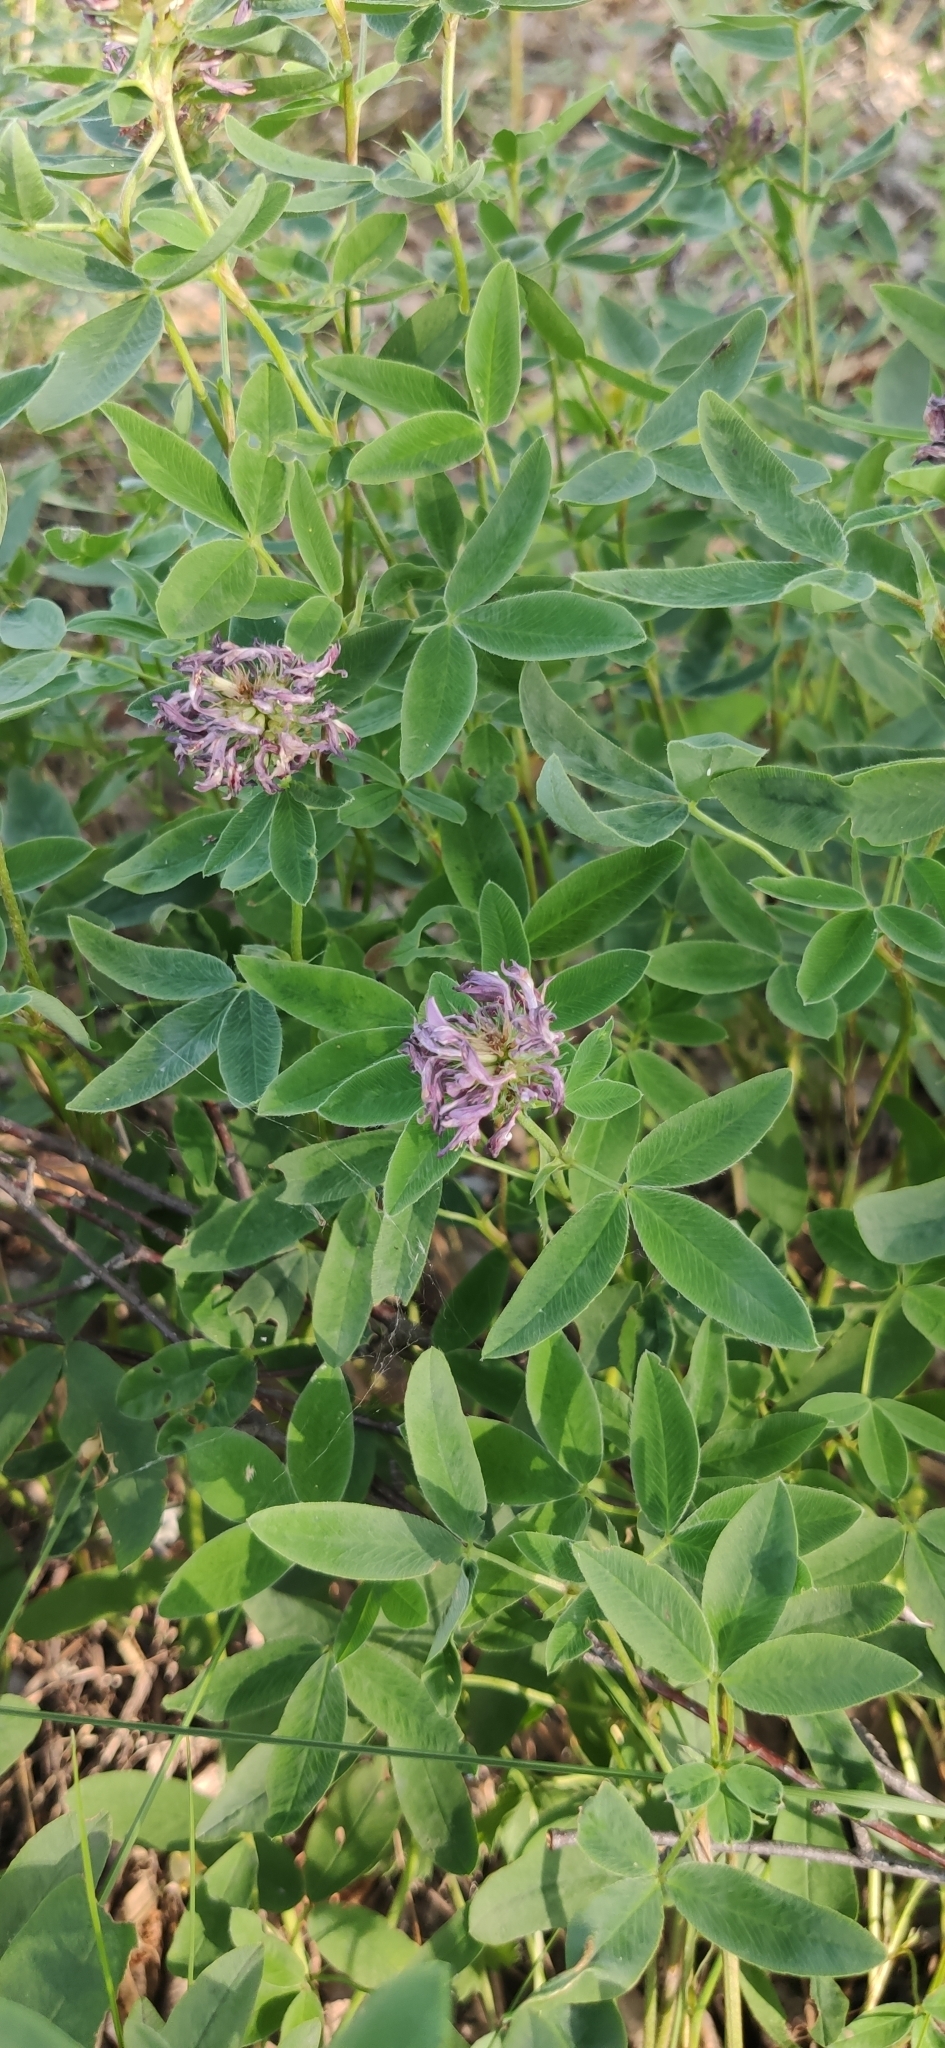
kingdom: Plantae
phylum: Tracheophyta
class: Magnoliopsida
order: Fabales
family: Fabaceae
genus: Trifolium
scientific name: Trifolium medium
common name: Zigzag clover
